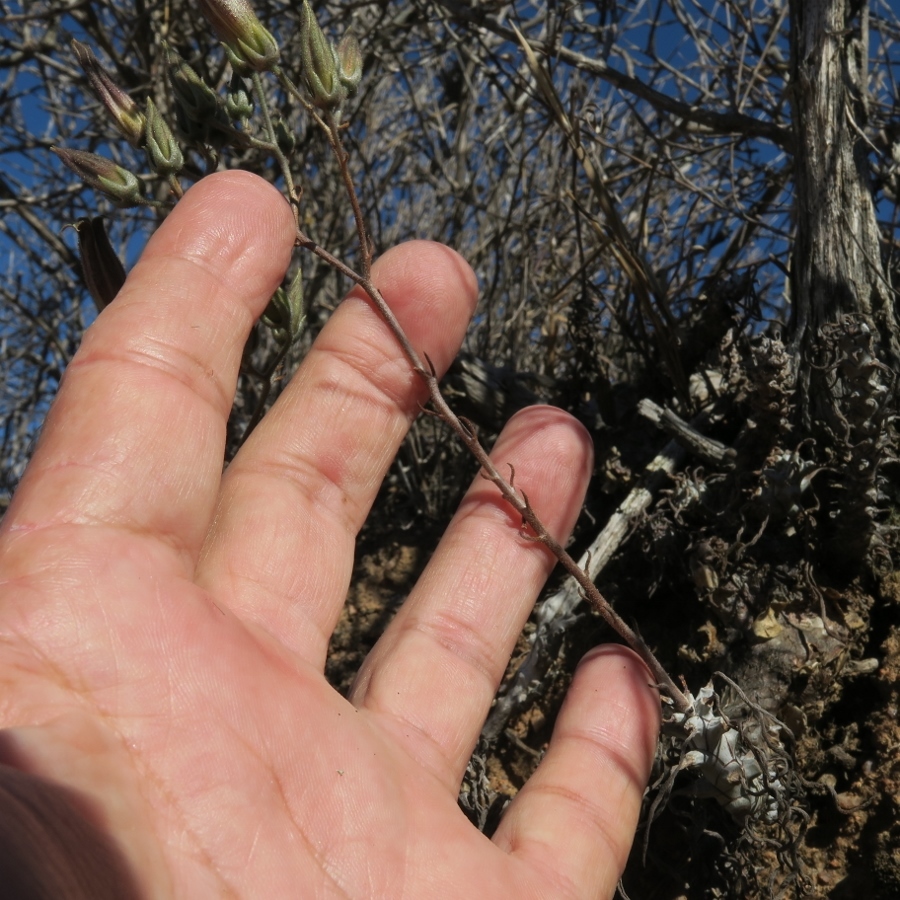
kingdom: Plantae
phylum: Tracheophyta
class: Magnoliopsida
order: Saxifragales
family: Crassulaceae
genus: Tylecodon
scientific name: Tylecodon striatus
